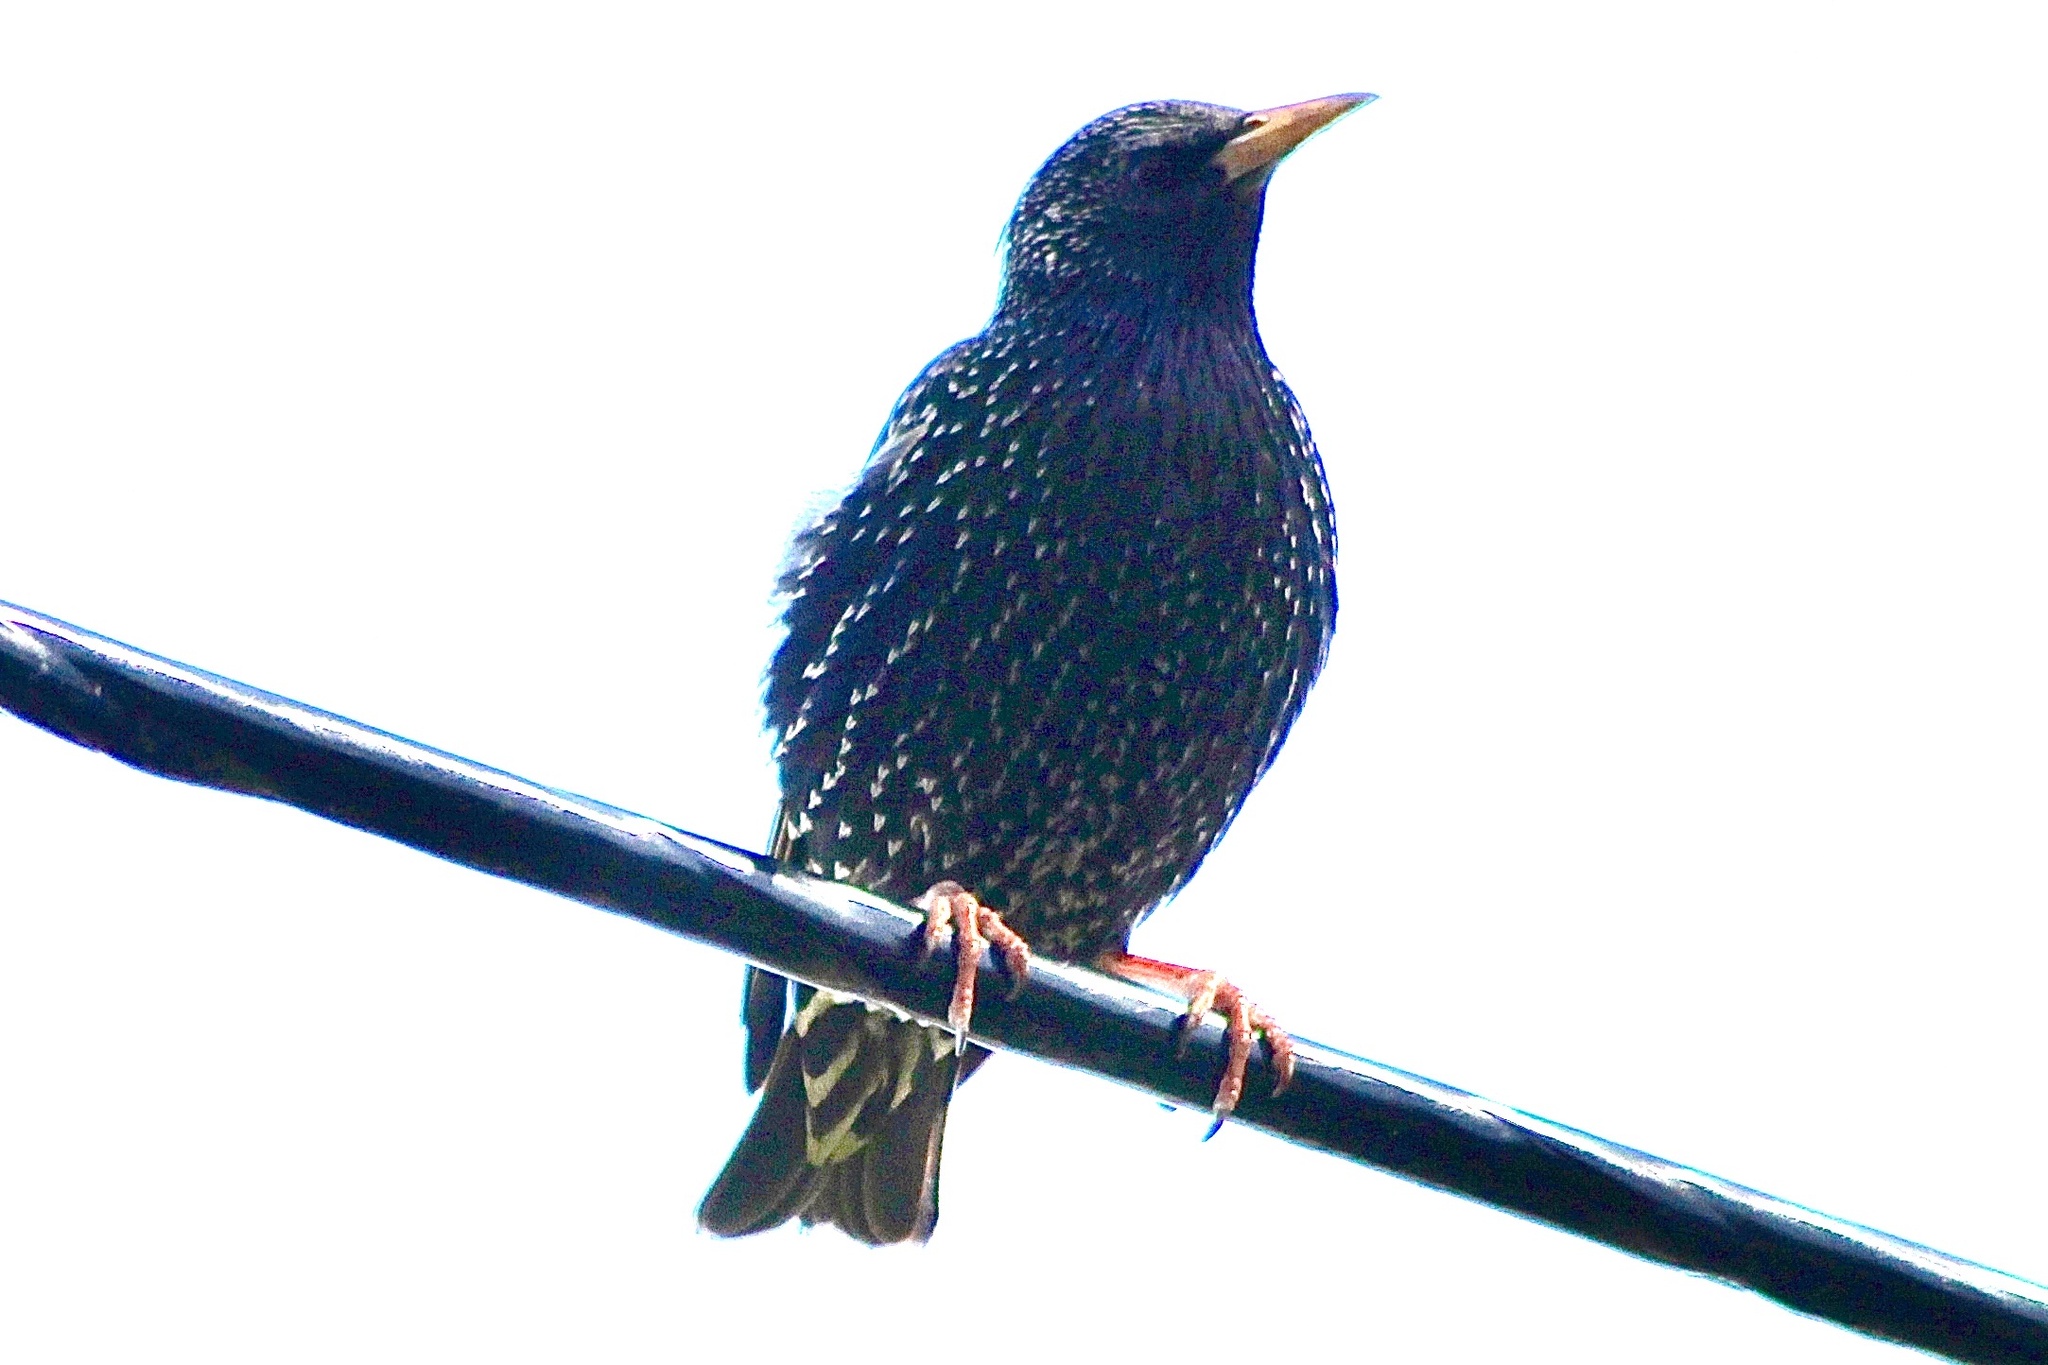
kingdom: Animalia
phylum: Chordata
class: Aves
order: Passeriformes
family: Sturnidae
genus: Sturnus
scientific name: Sturnus vulgaris
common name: Common starling
